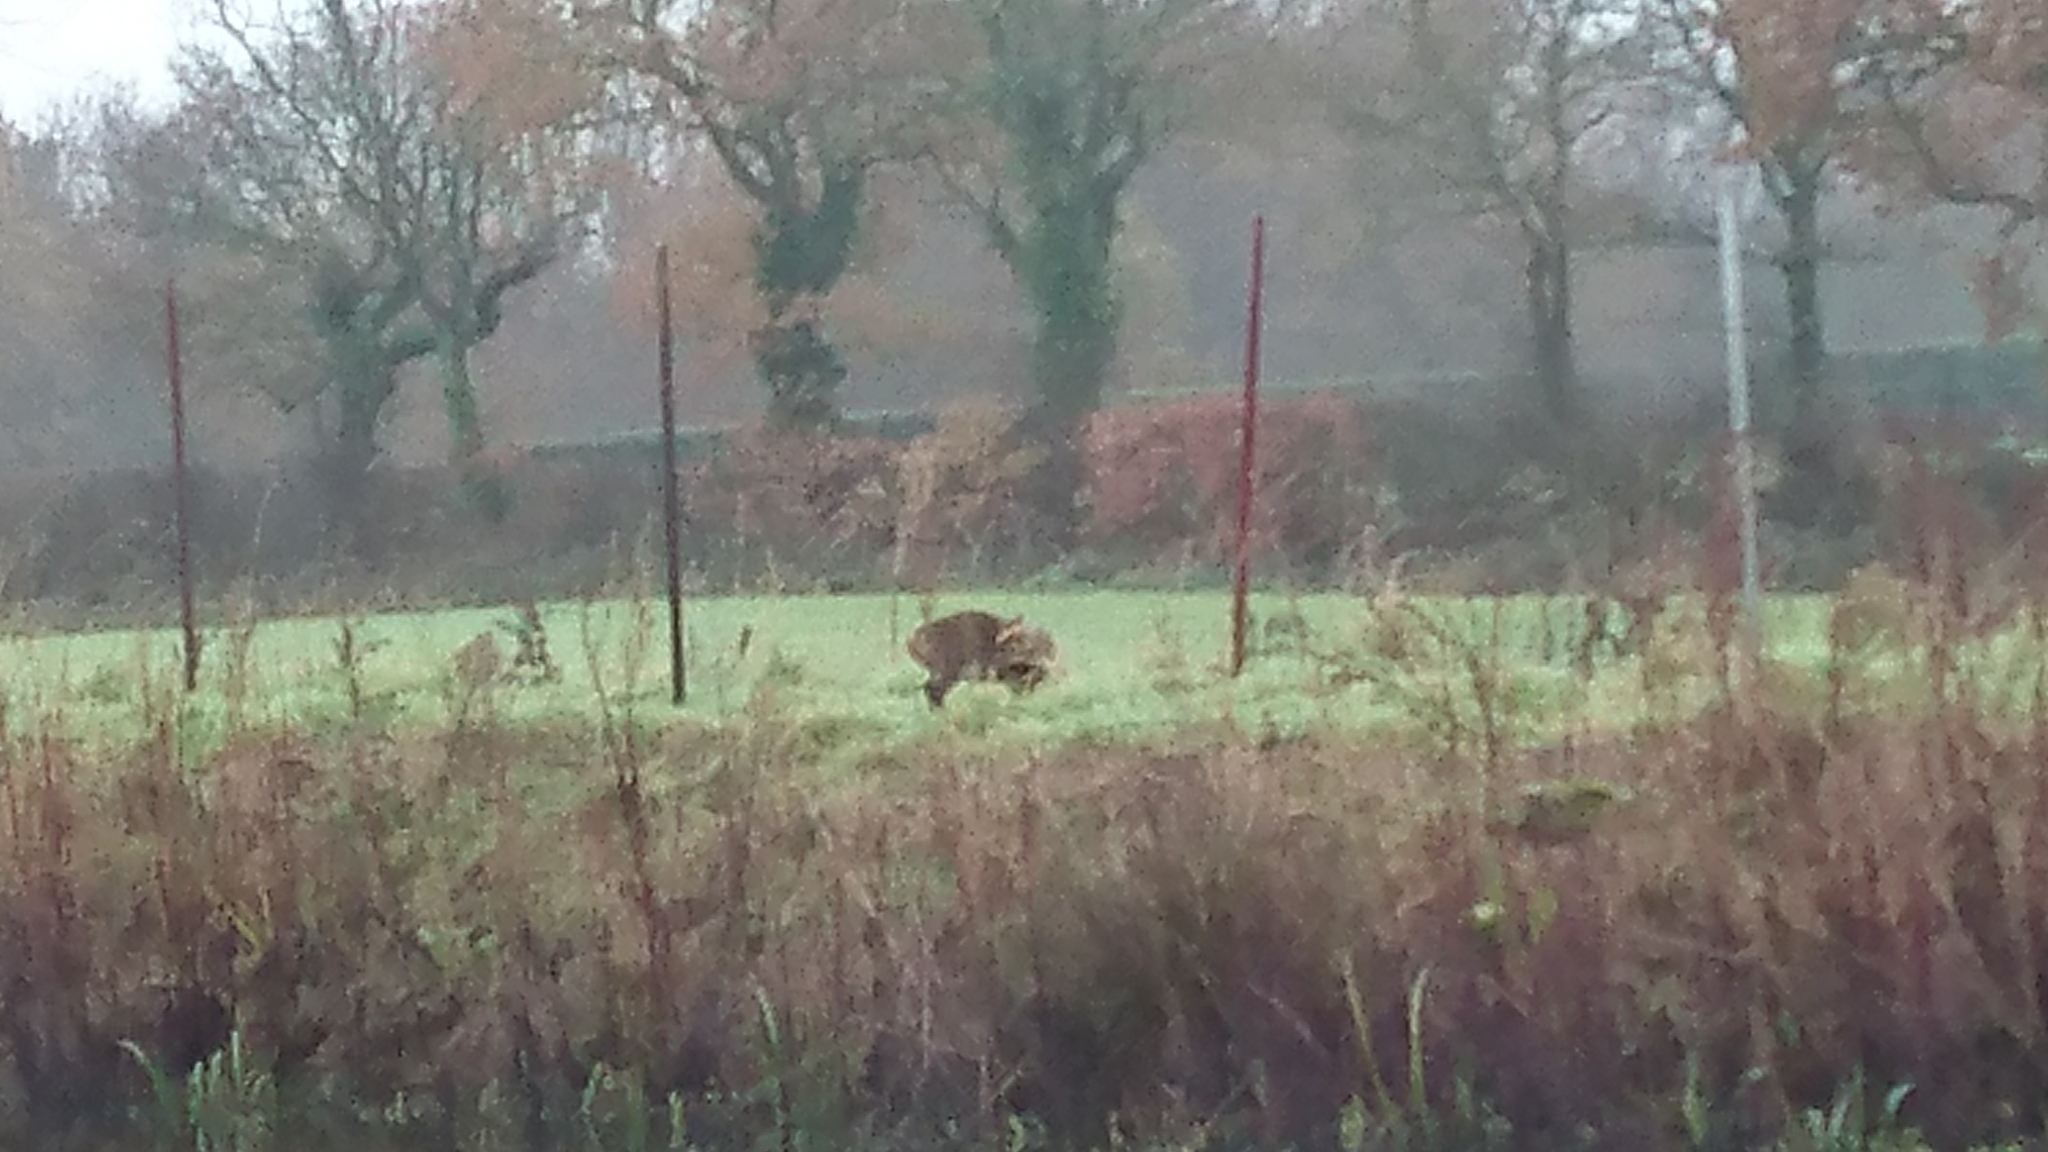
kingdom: Animalia
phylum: Chordata
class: Mammalia
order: Artiodactyla
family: Cervidae
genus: Muntiacus
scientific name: Muntiacus reevesi
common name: Reeves' muntjac
